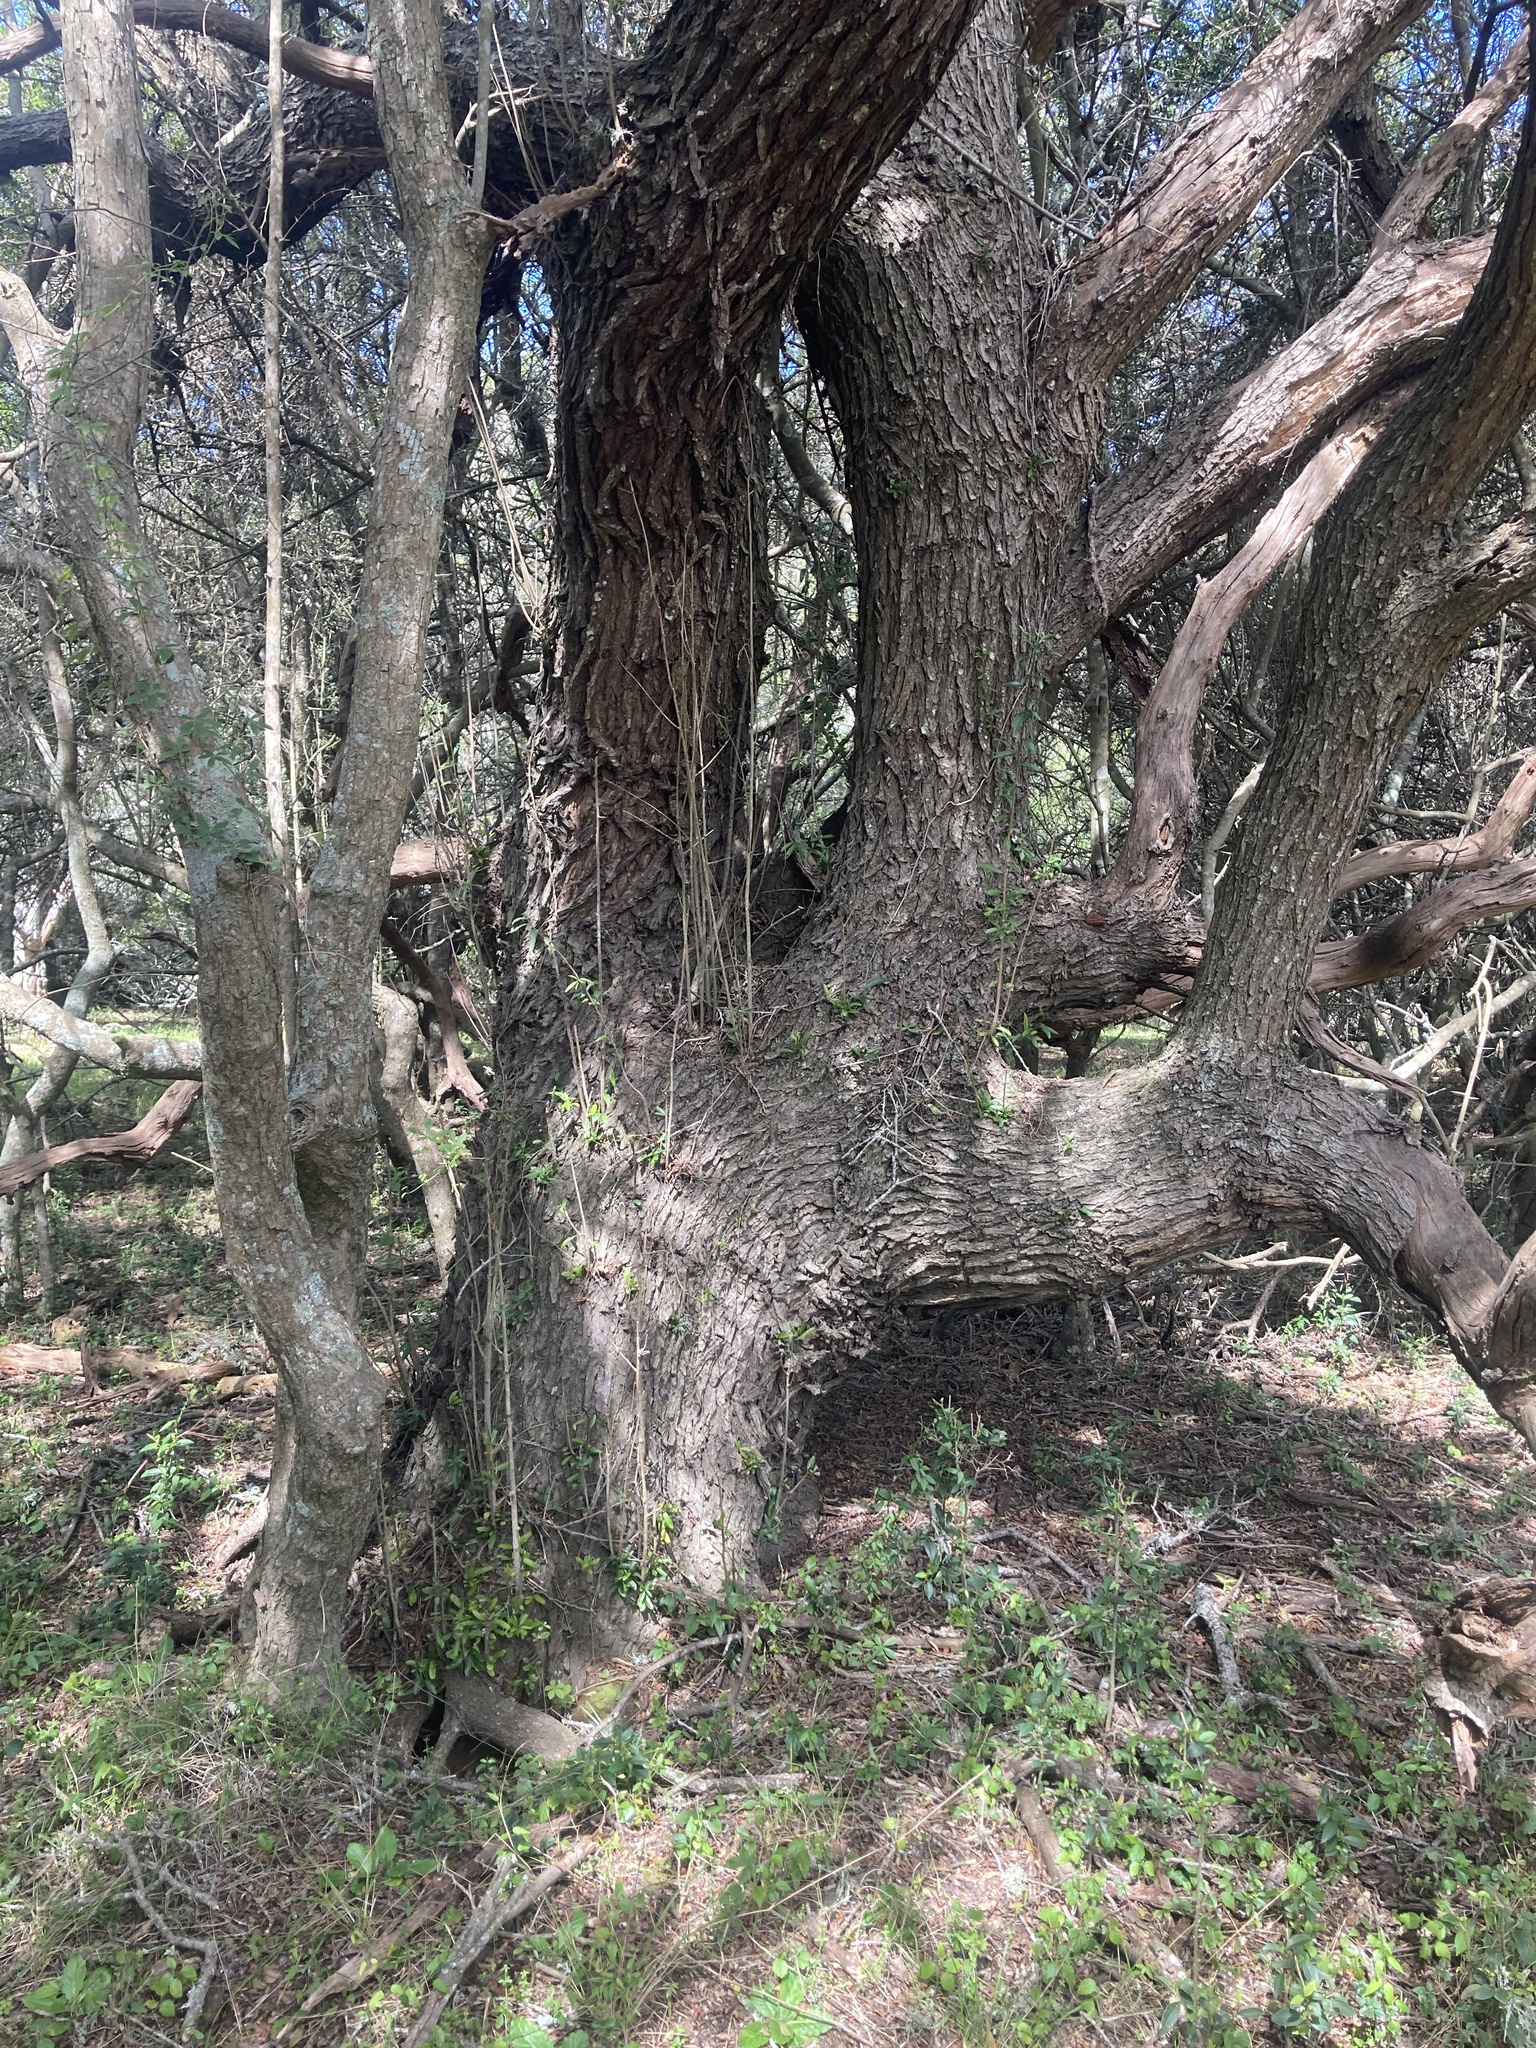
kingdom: Plantae
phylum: Tracheophyta
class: Magnoliopsida
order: Sapindales
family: Anacardiaceae
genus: Schinus
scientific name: Schinus longifolia
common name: Longleaf peppertree
